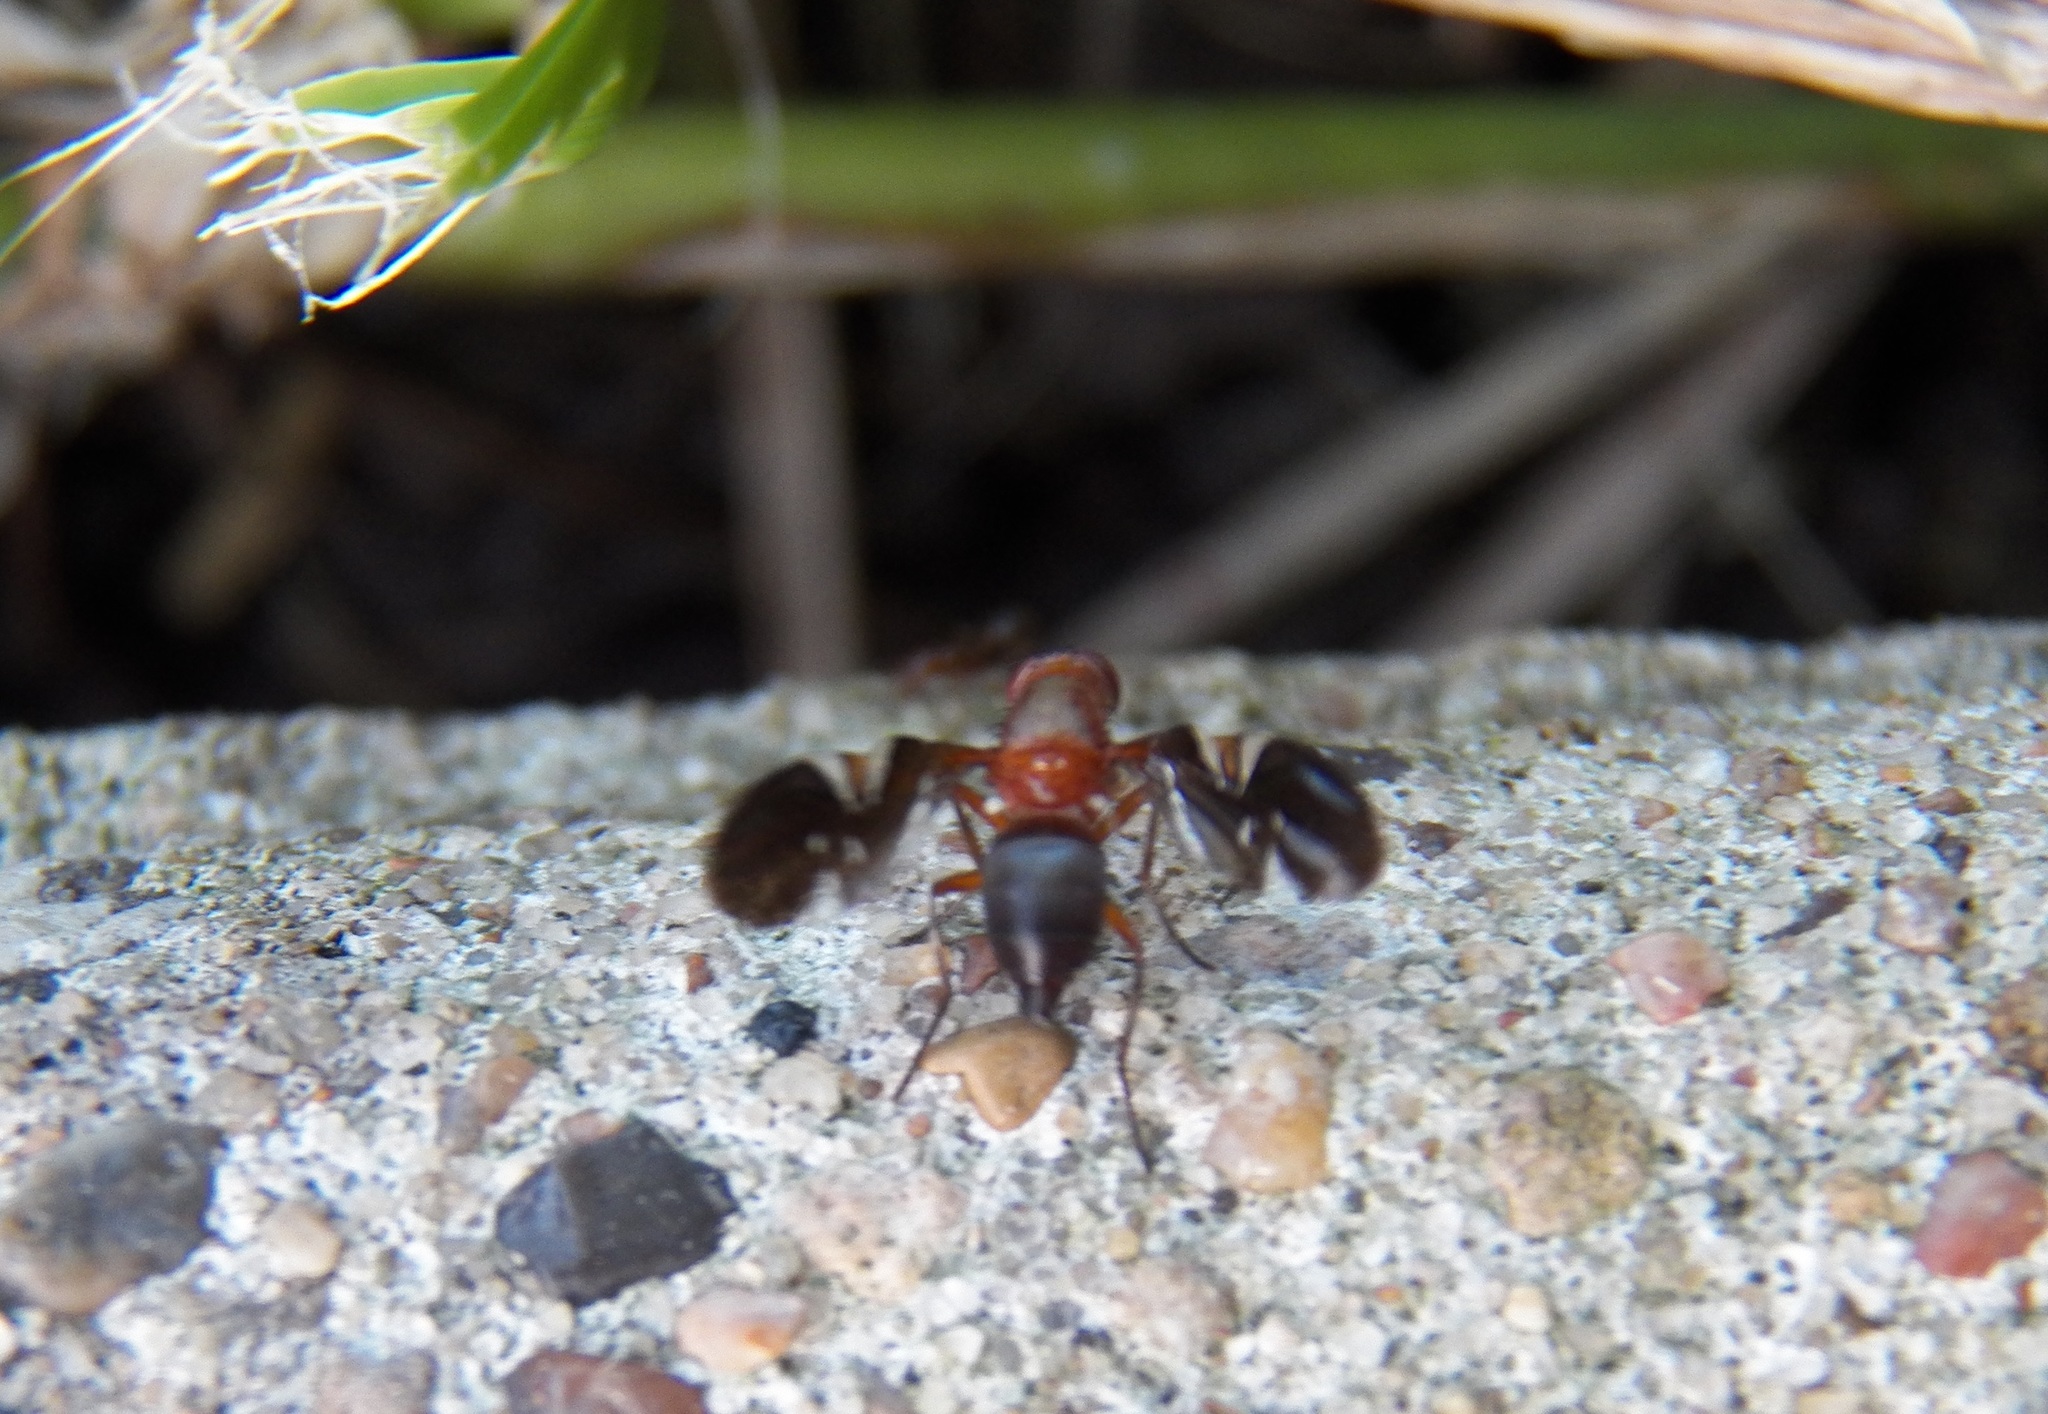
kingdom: Animalia
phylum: Arthropoda
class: Insecta
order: Diptera
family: Ulidiidae
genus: Delphinia
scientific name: Delphinia picta
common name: Common picture-winged fly
